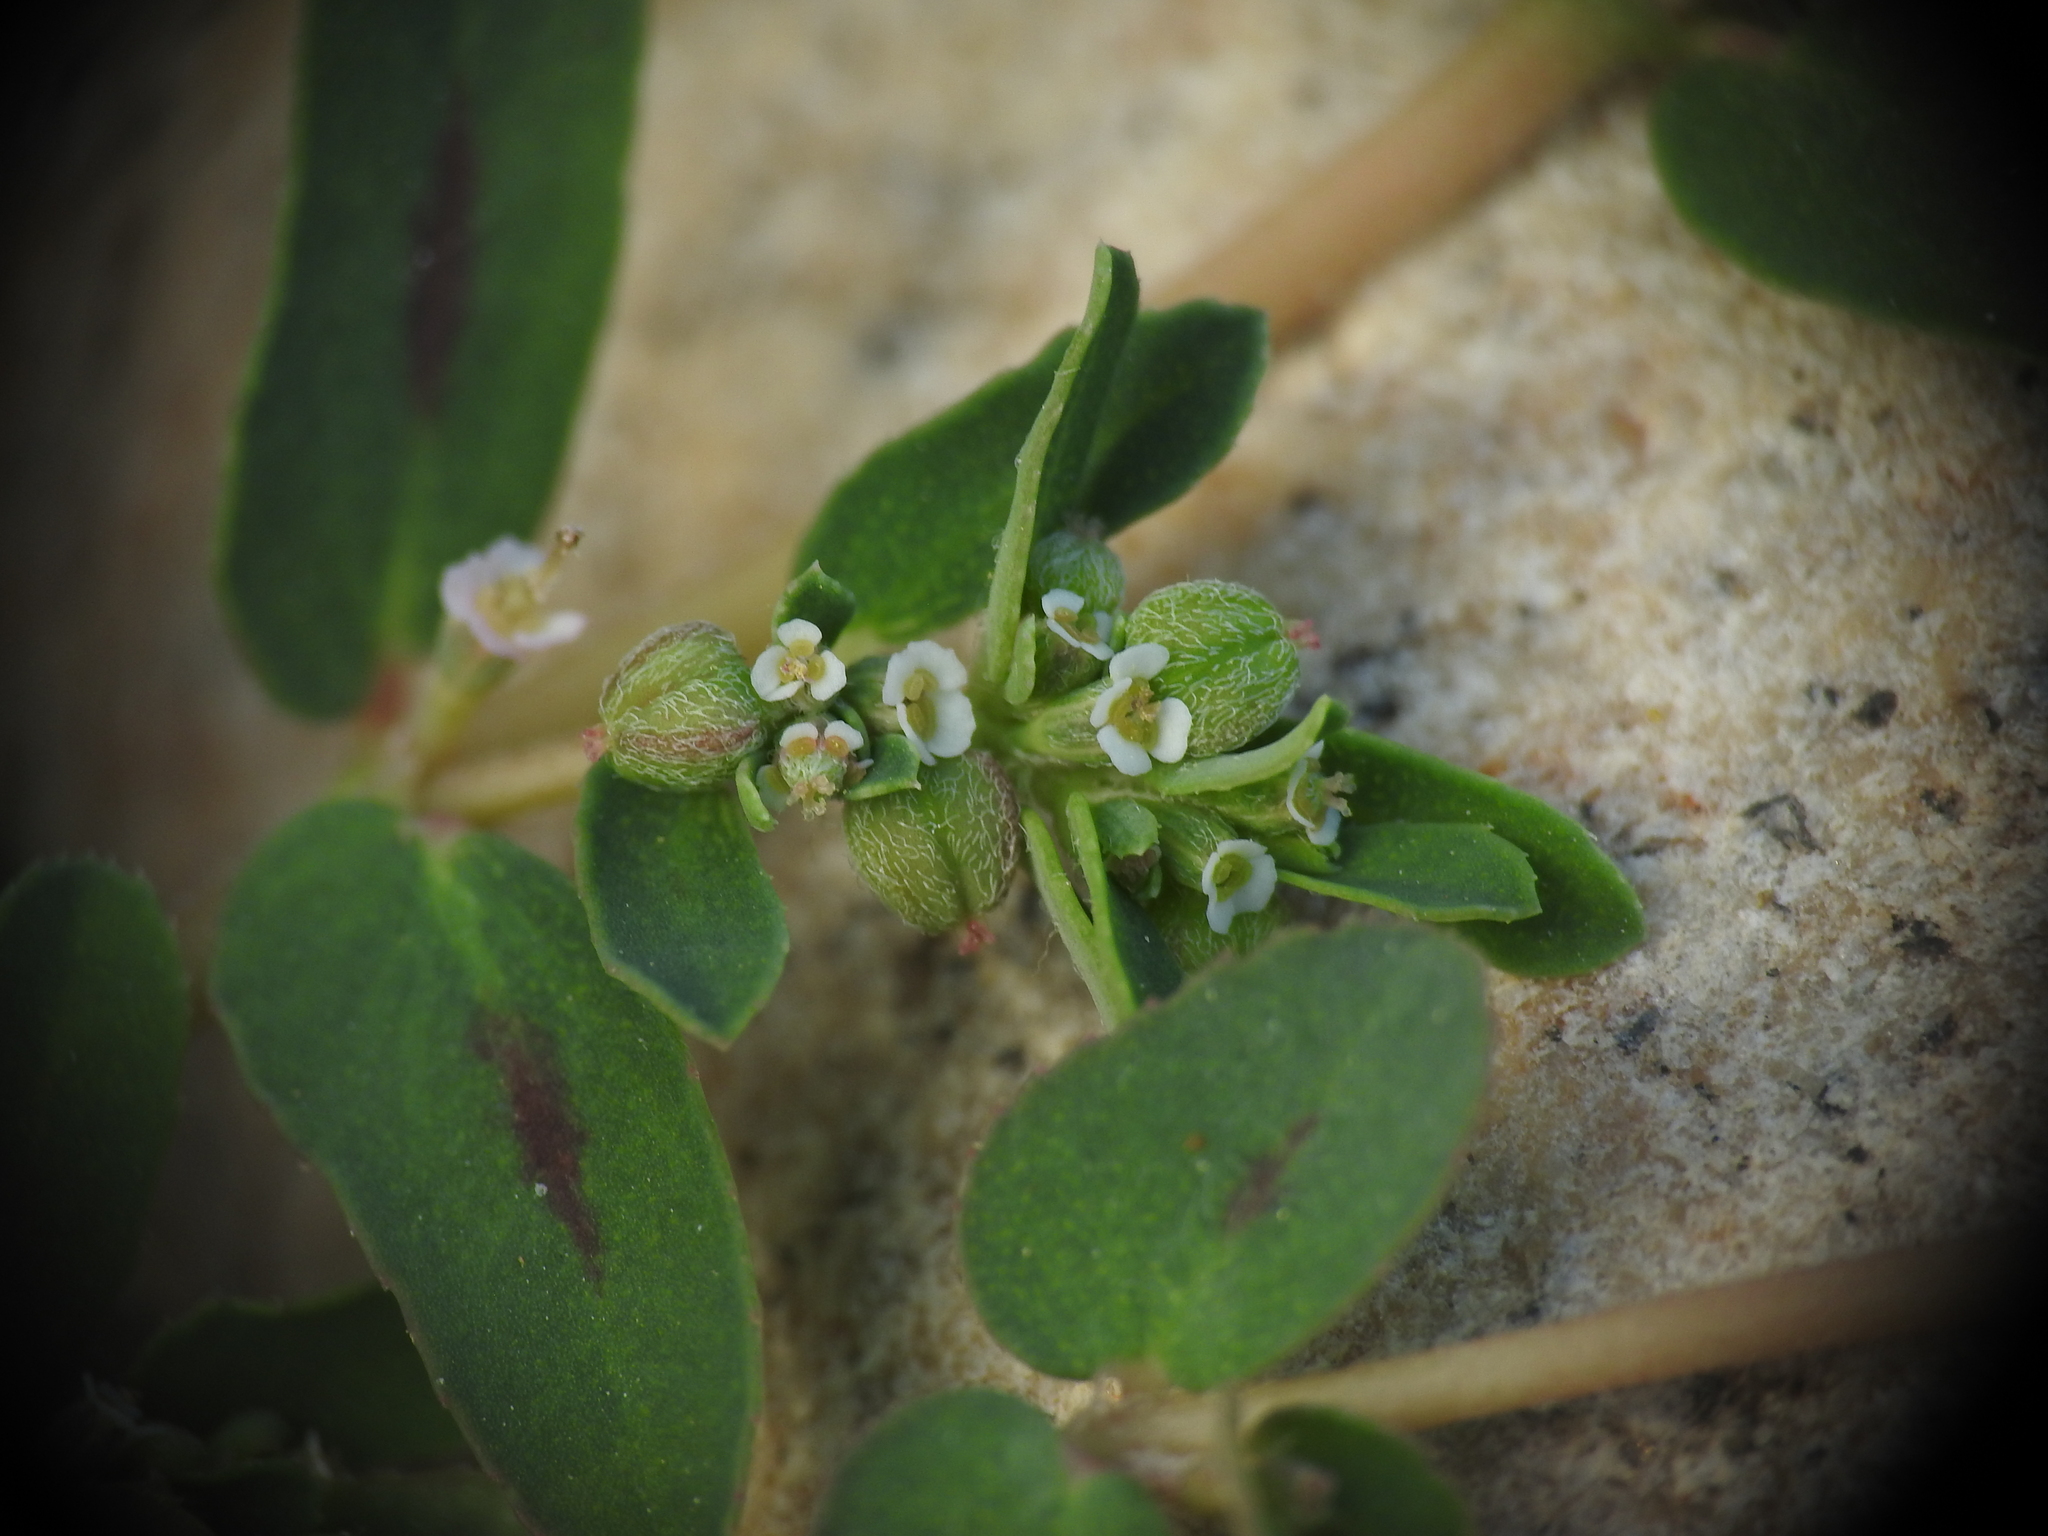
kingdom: Plantae
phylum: Tracheophyta
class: Magnoliopsida
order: Malpighiales
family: Euphorbiaceae
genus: Euphorbia
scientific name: Euphorbia maculata
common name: Spotted spurge
